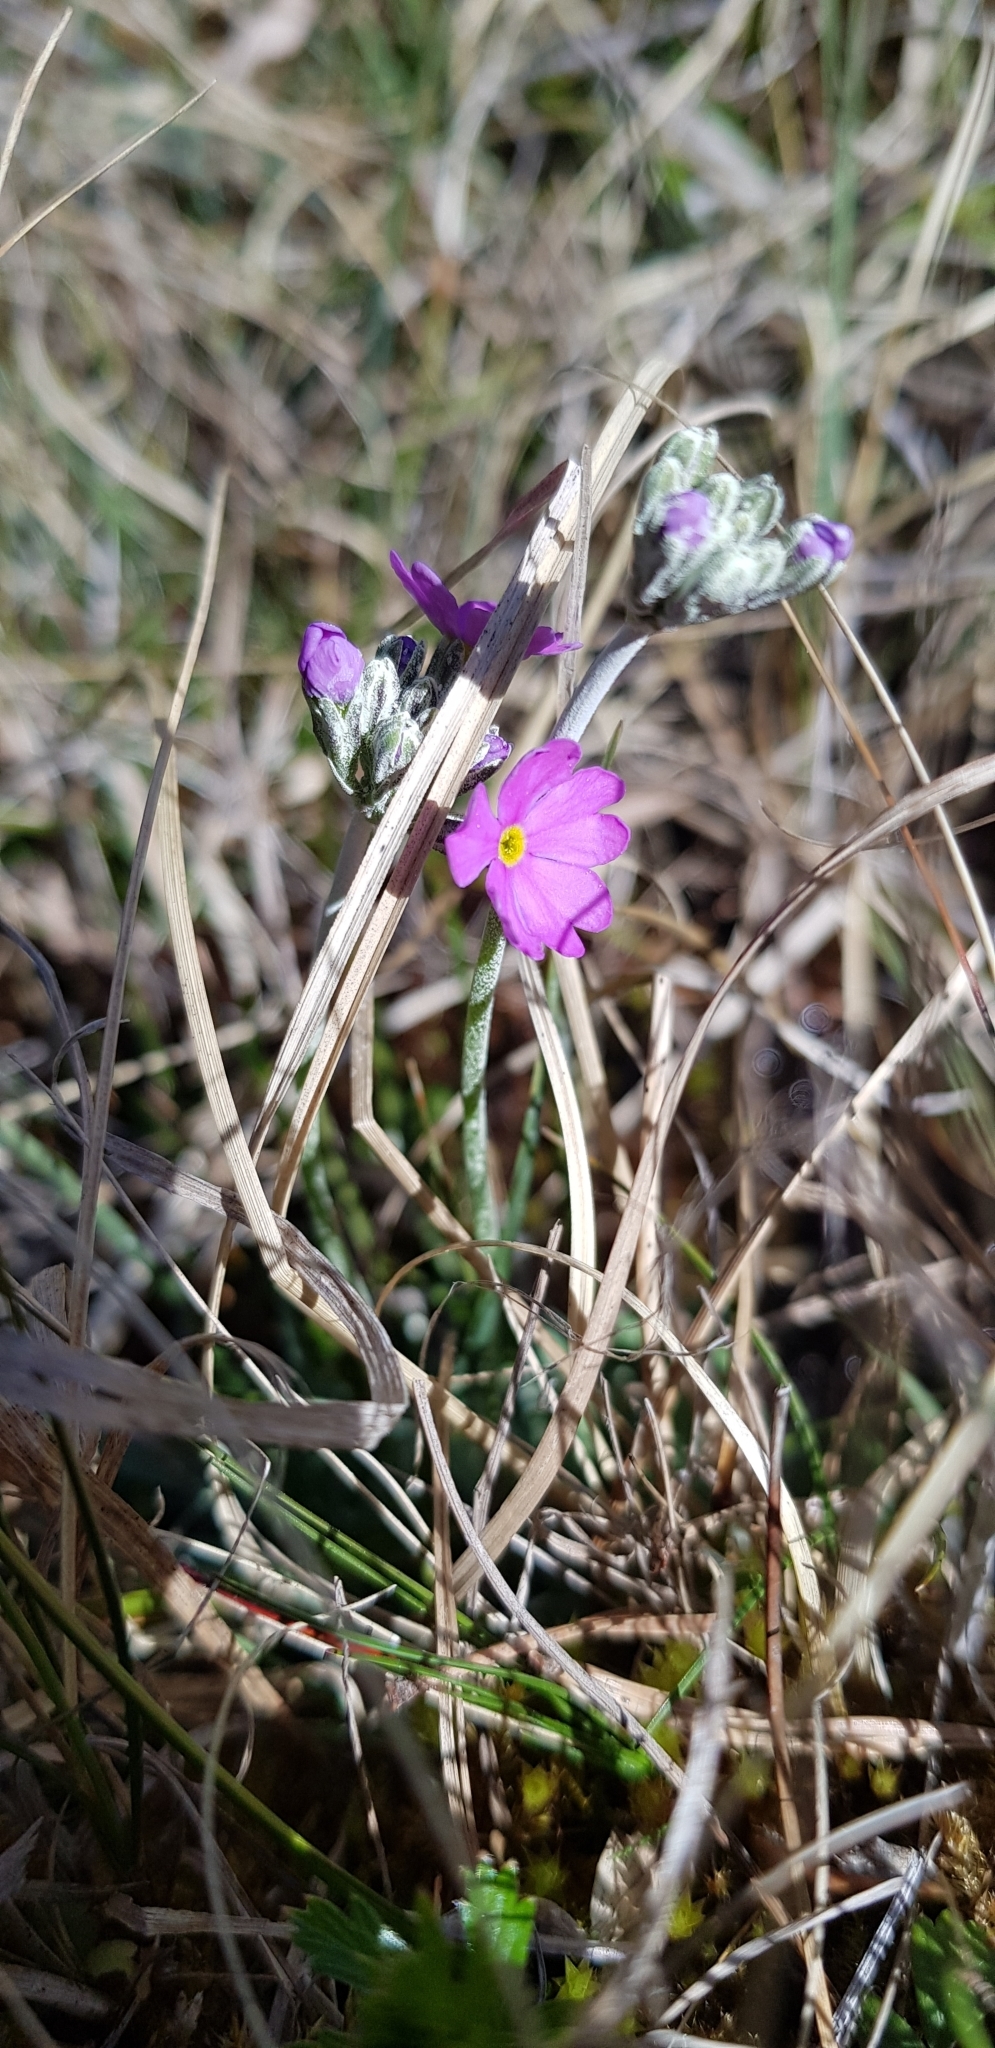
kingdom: Plantae
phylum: Tracheophyta
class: Magnoliopsida
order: Ericales
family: Primulaceae
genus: Primula
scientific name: Primula farinosa
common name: Bird's-eye primrose
